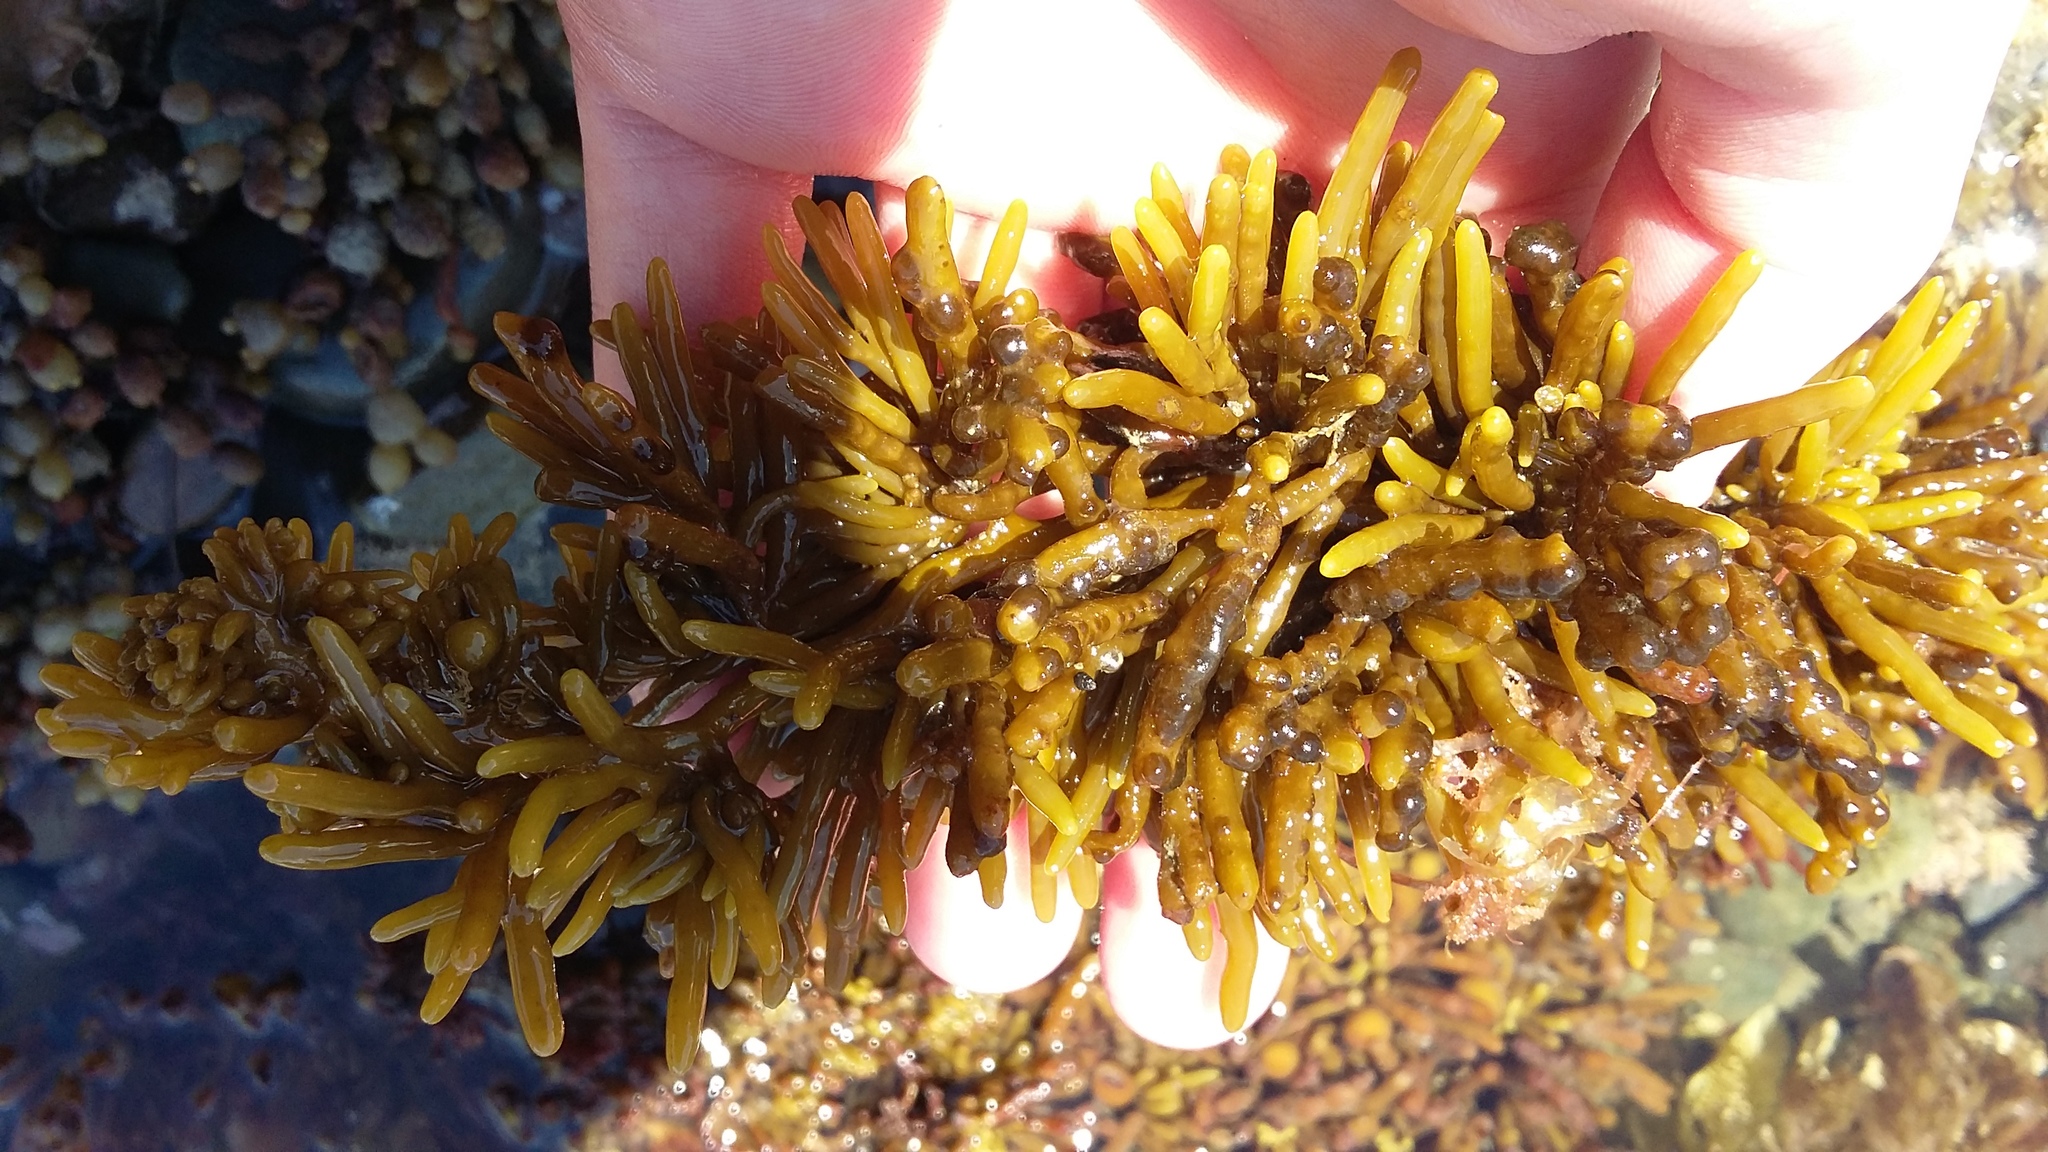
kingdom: Chromista
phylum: Ochrophyta
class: Phaeophyceae
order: Fucales
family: Sargassaceae
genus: Cystophora
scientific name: Cystophora torulosa
